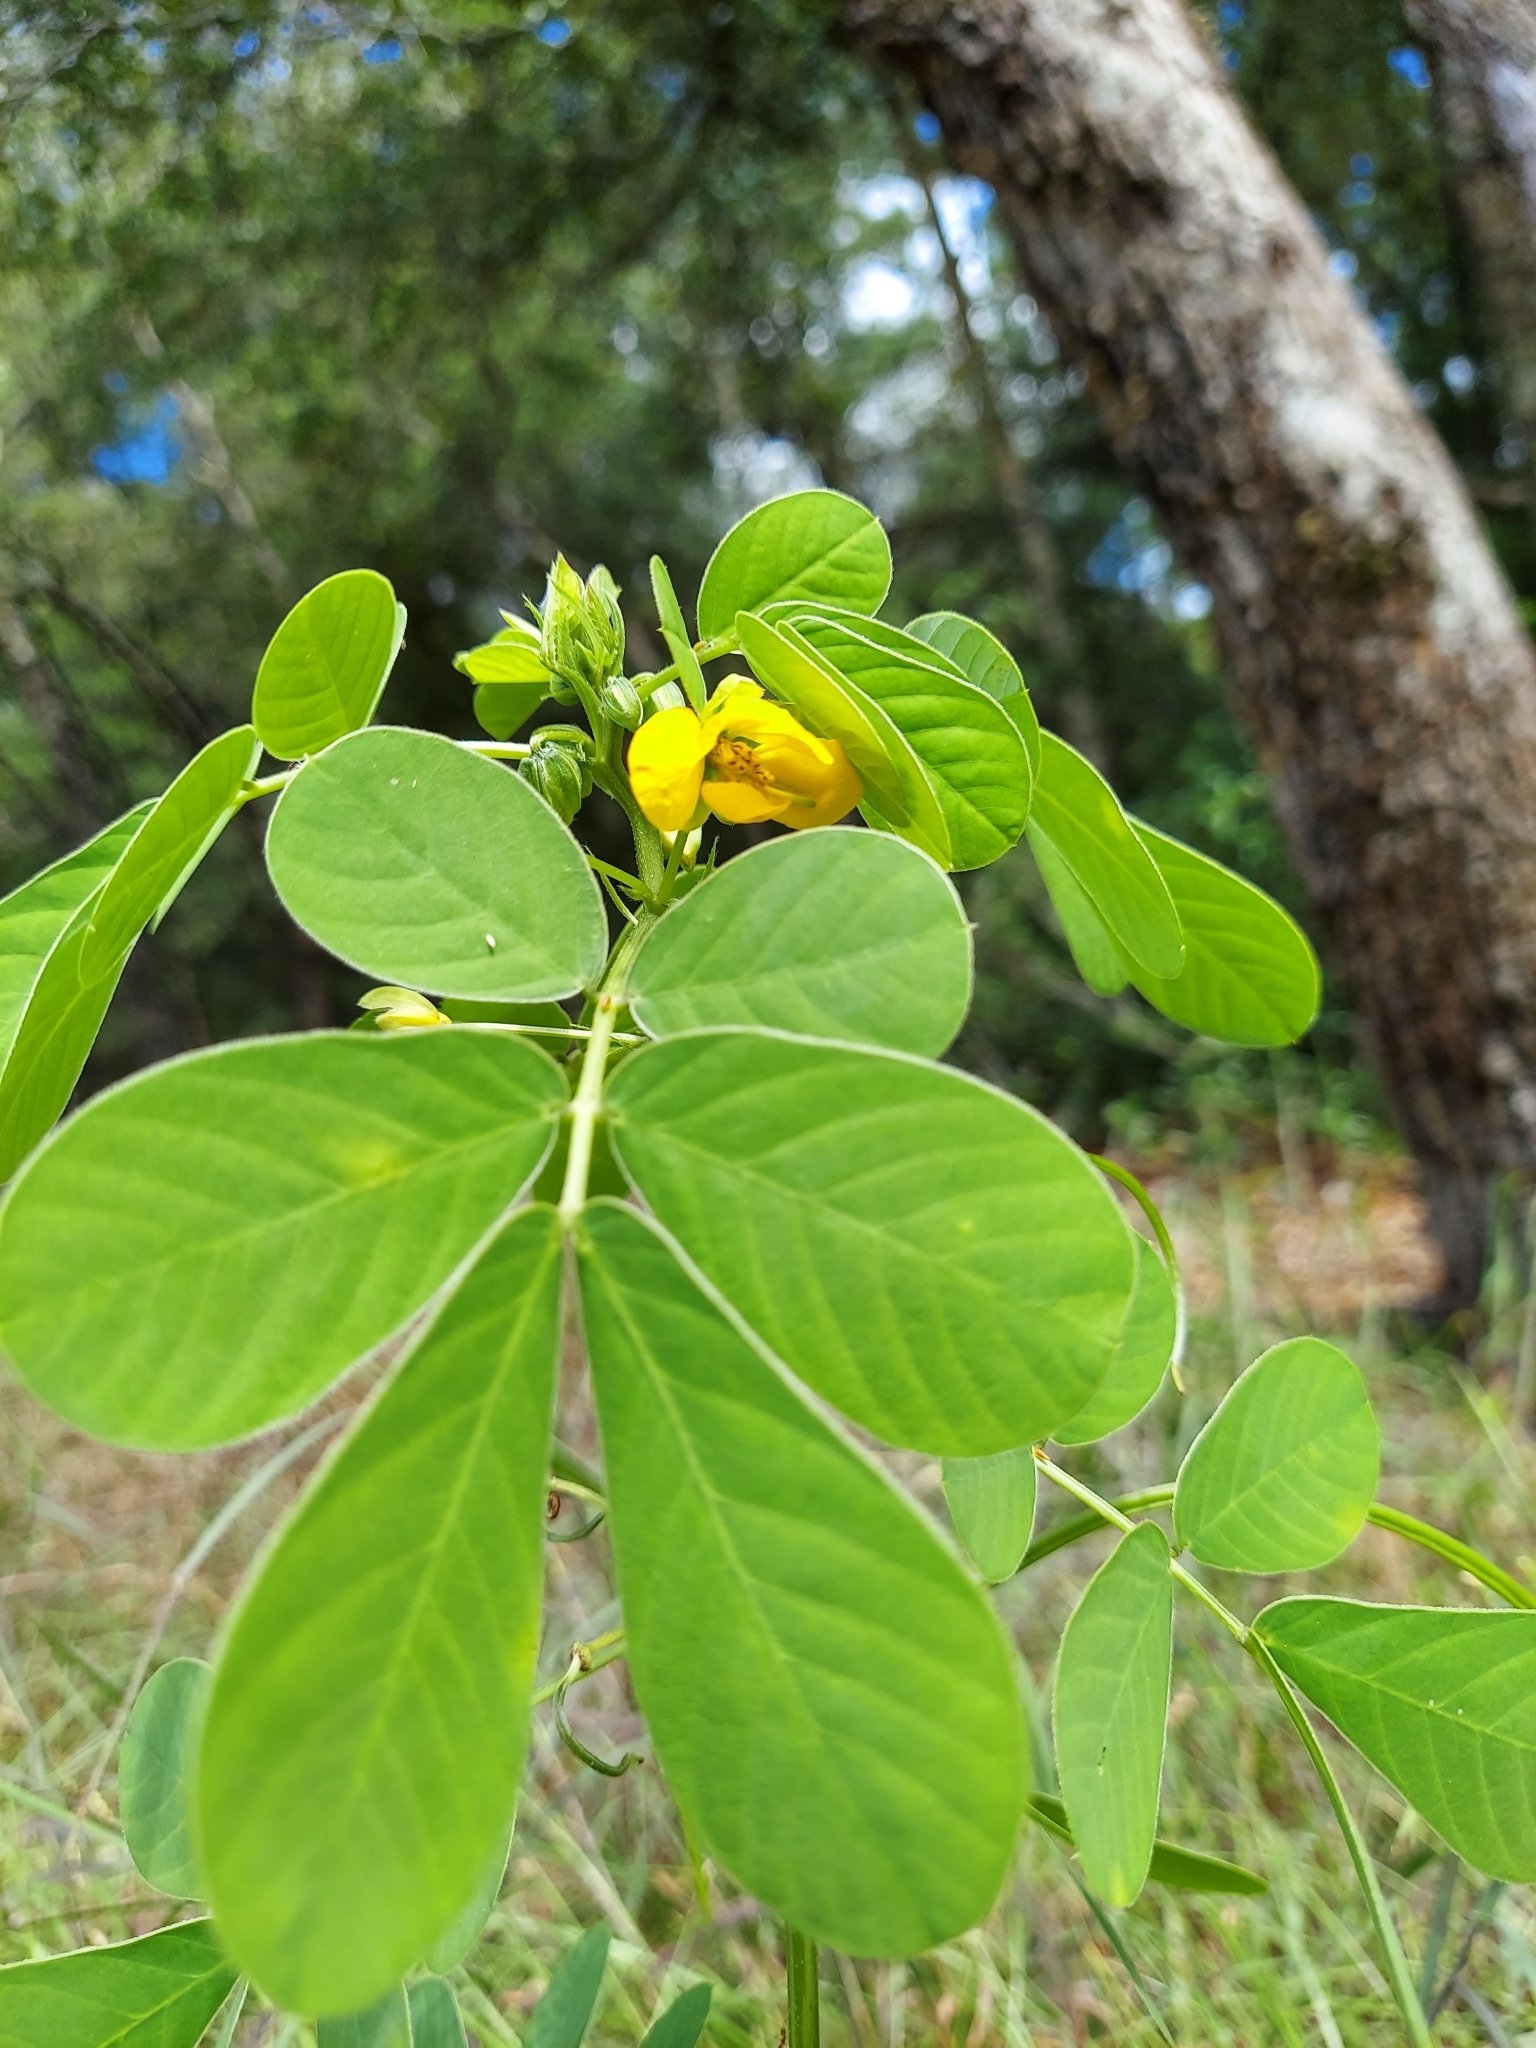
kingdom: Plantae
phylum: Tracheophyta
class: Magnoliopsida
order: Fabales
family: Fabaceae
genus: Senna
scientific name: Senna obtusifolia
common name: Java-bean
